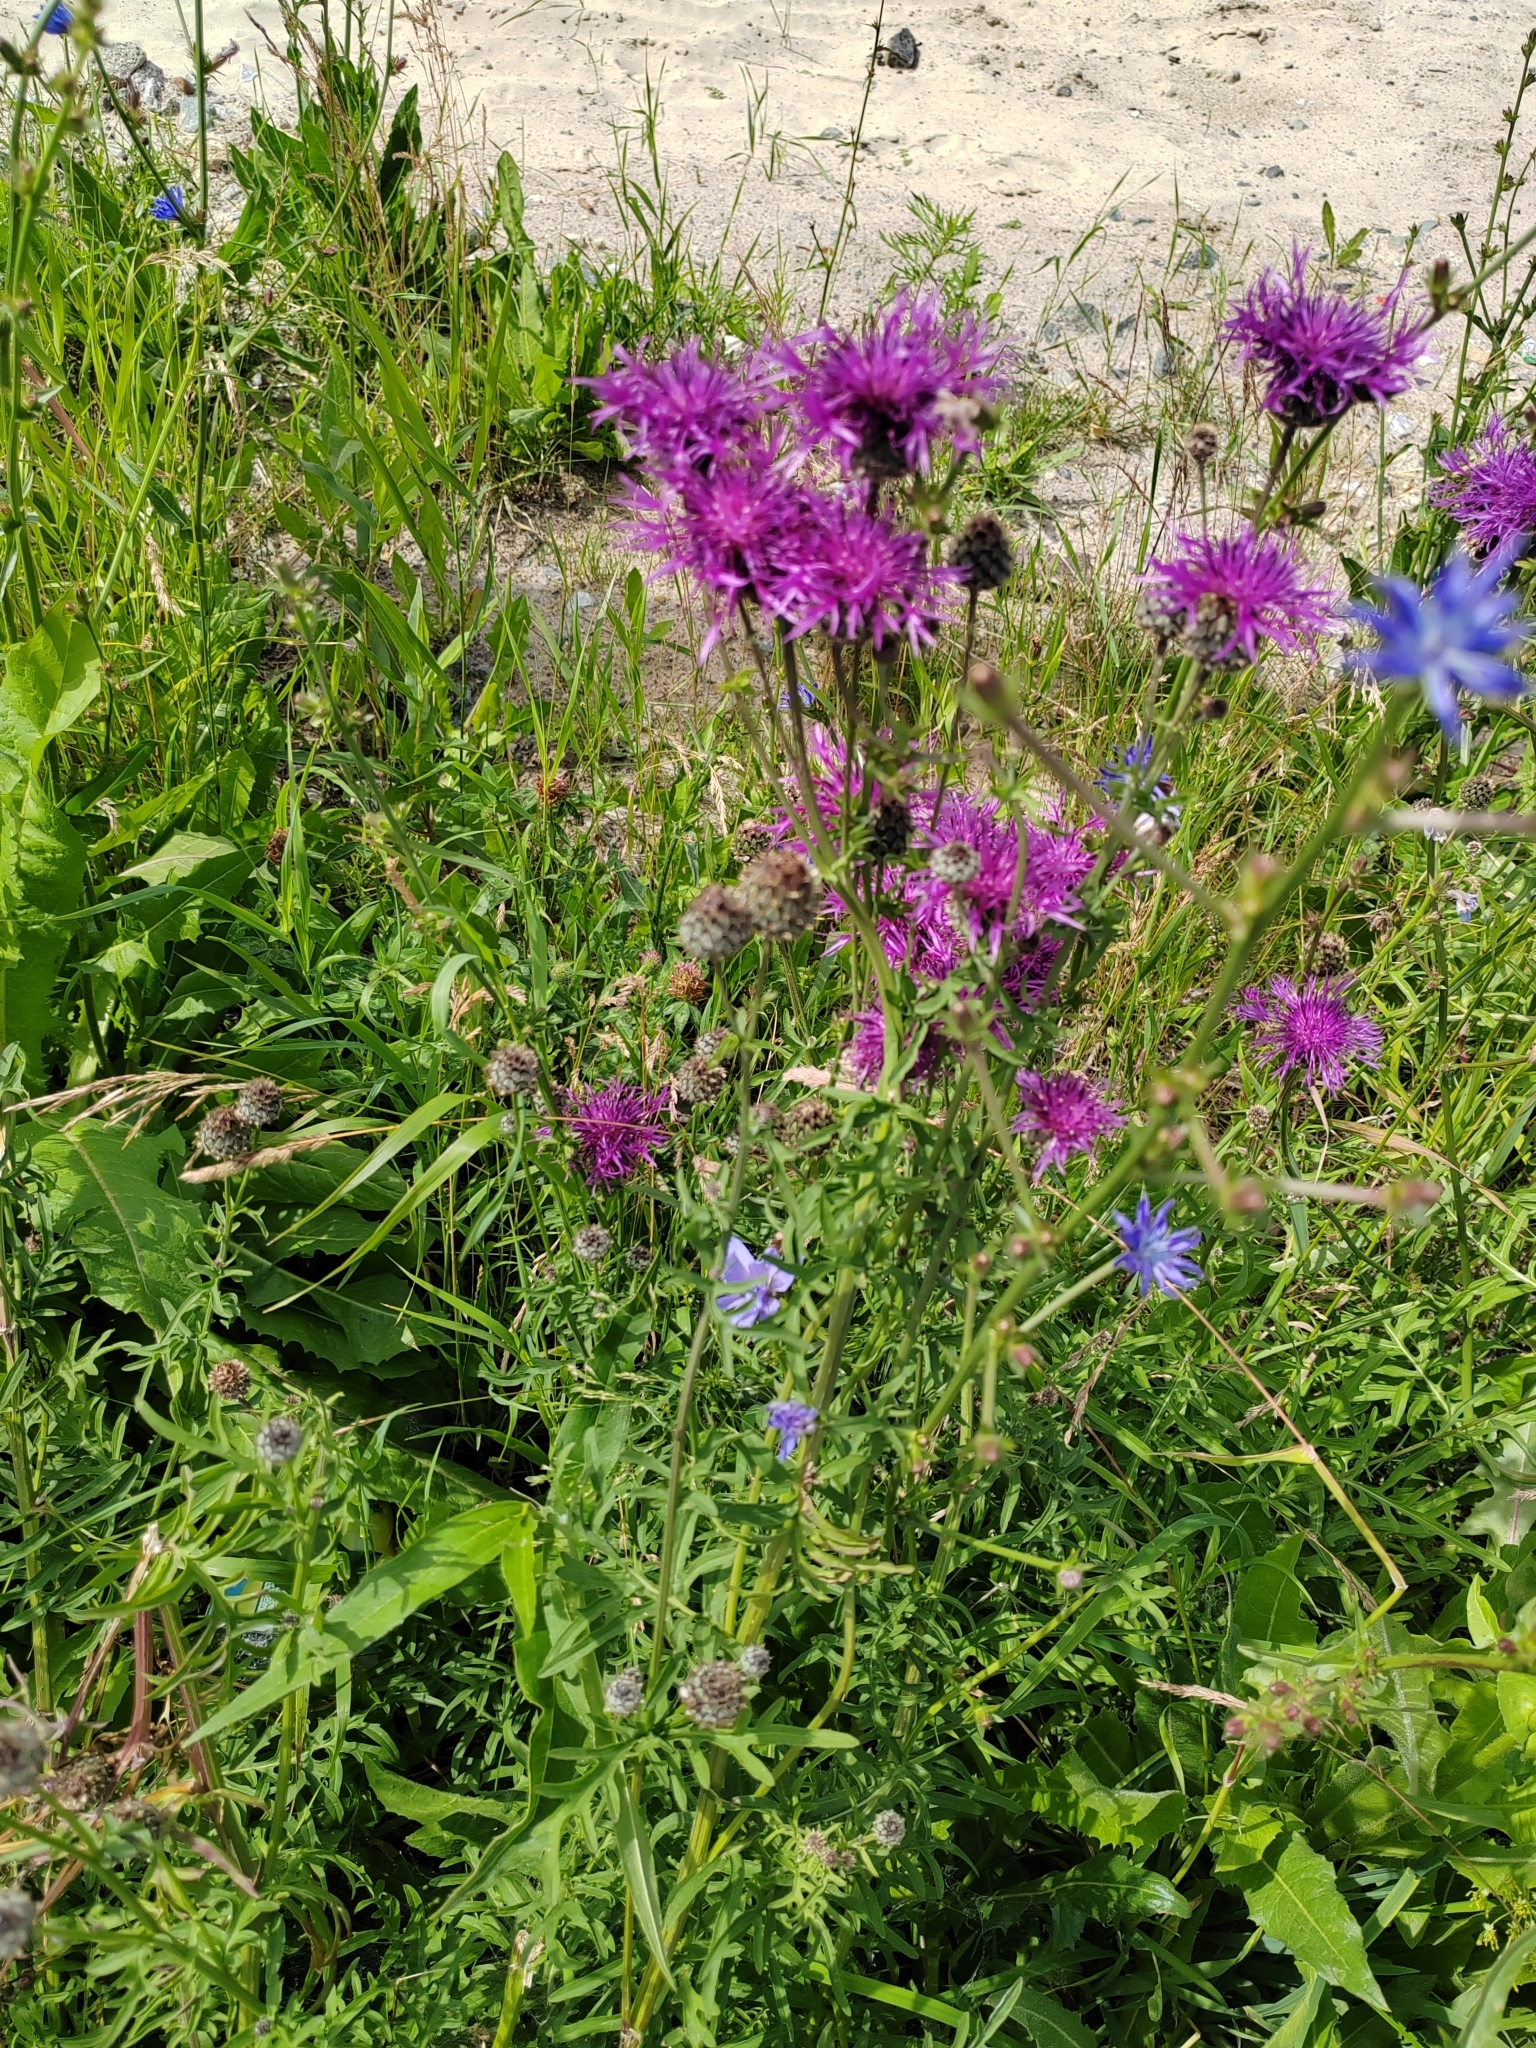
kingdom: Plantae
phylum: Tracheophyta
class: Magnoliopsida
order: Asterales
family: Asteraceae
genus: Centaurea
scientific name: Centaurea scabiosa
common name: Greater knapweed
